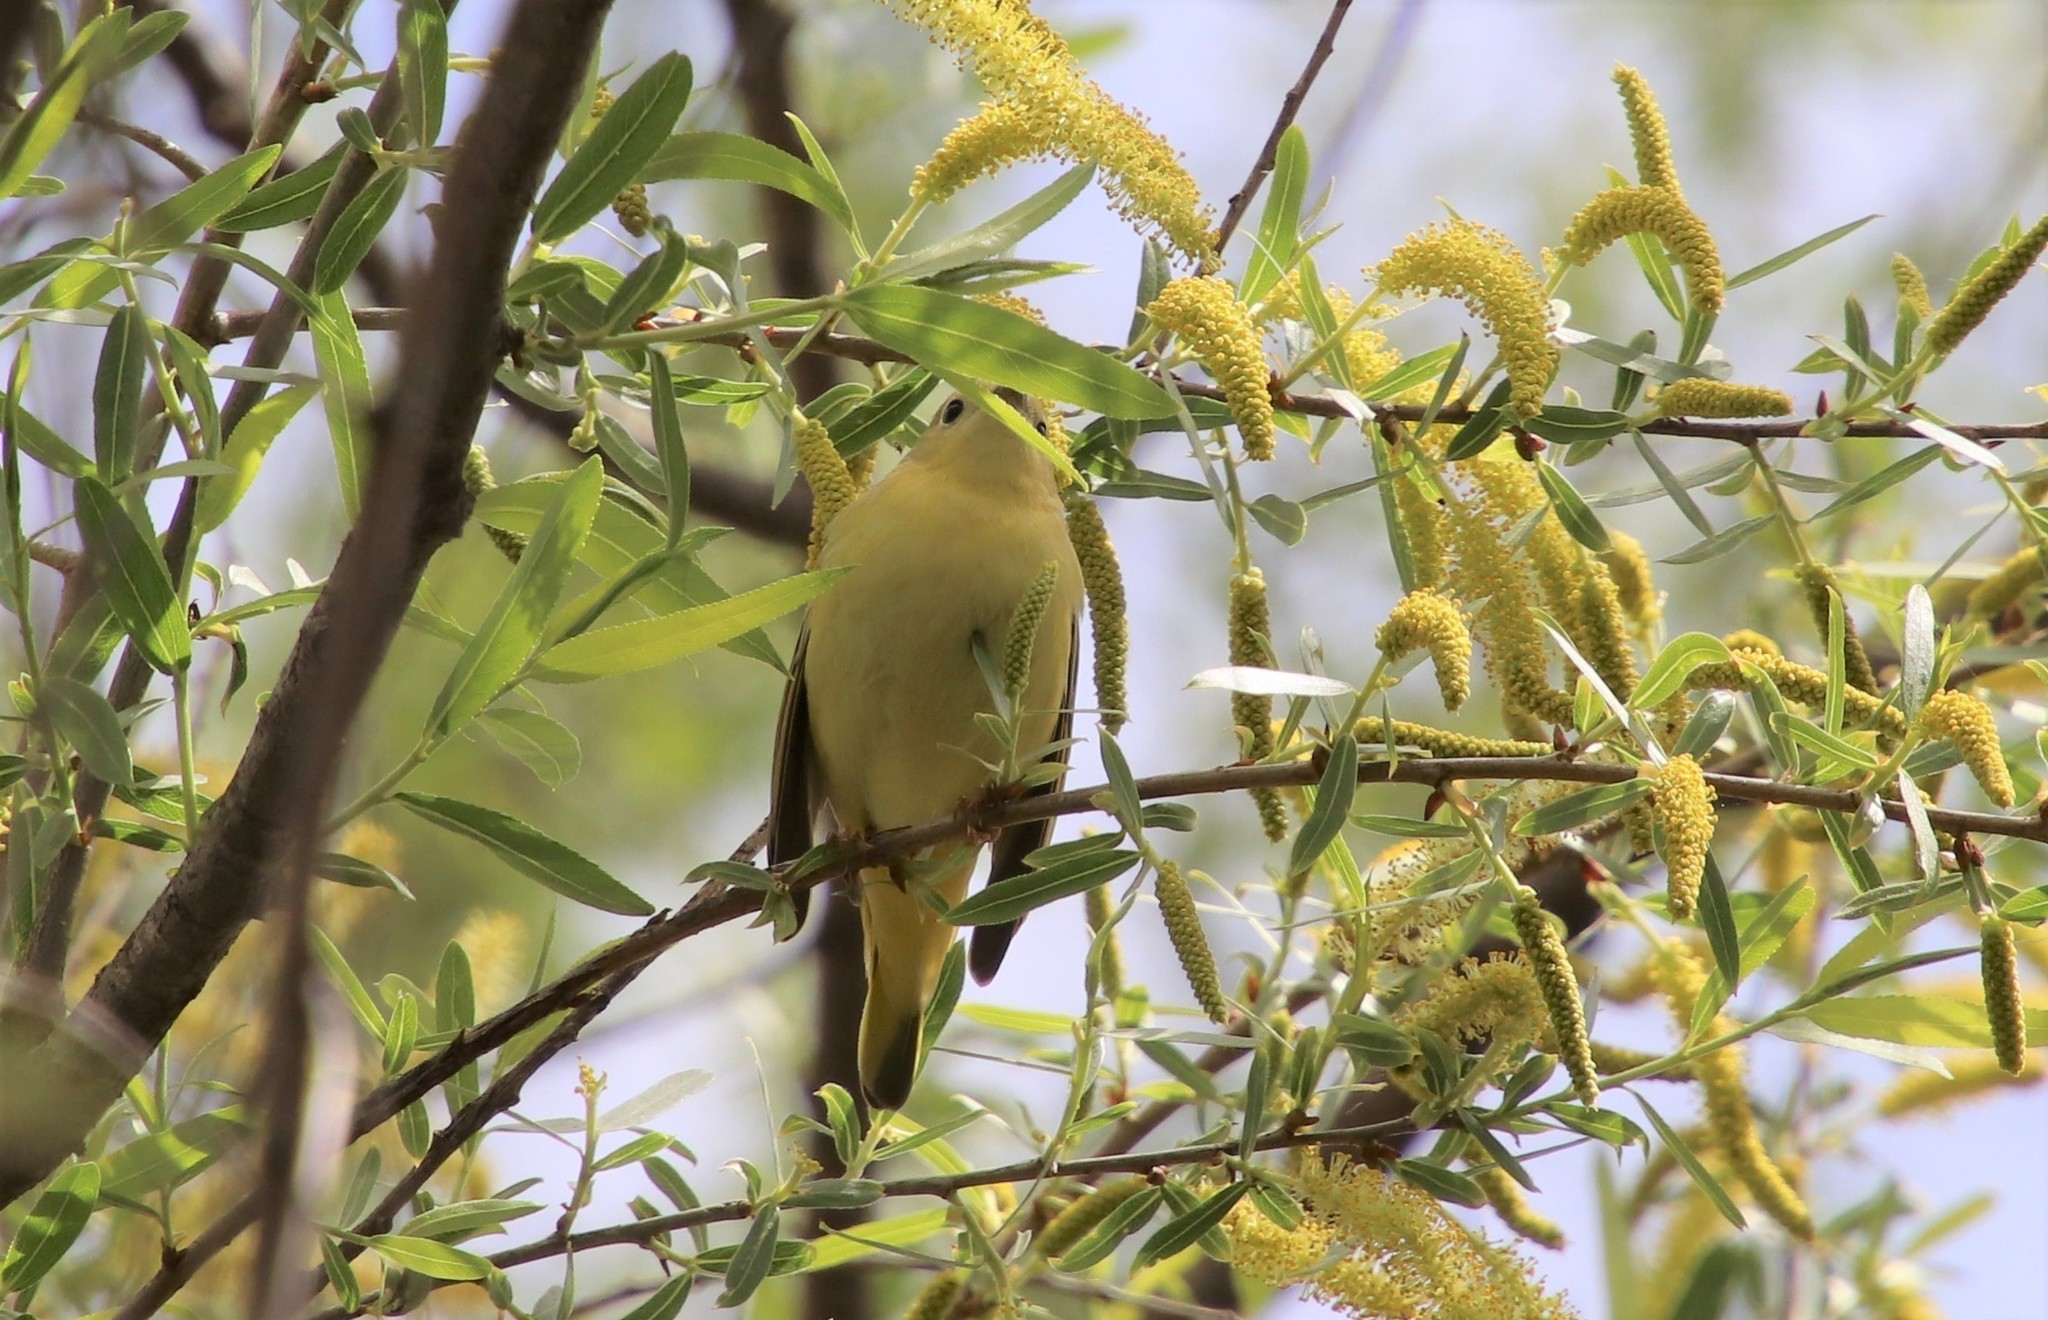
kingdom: Animalia
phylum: Chordata
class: Aves
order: Passeriformes
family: Parulidae
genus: Setophaga
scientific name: Setophaga petechia
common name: Yellow warbler
